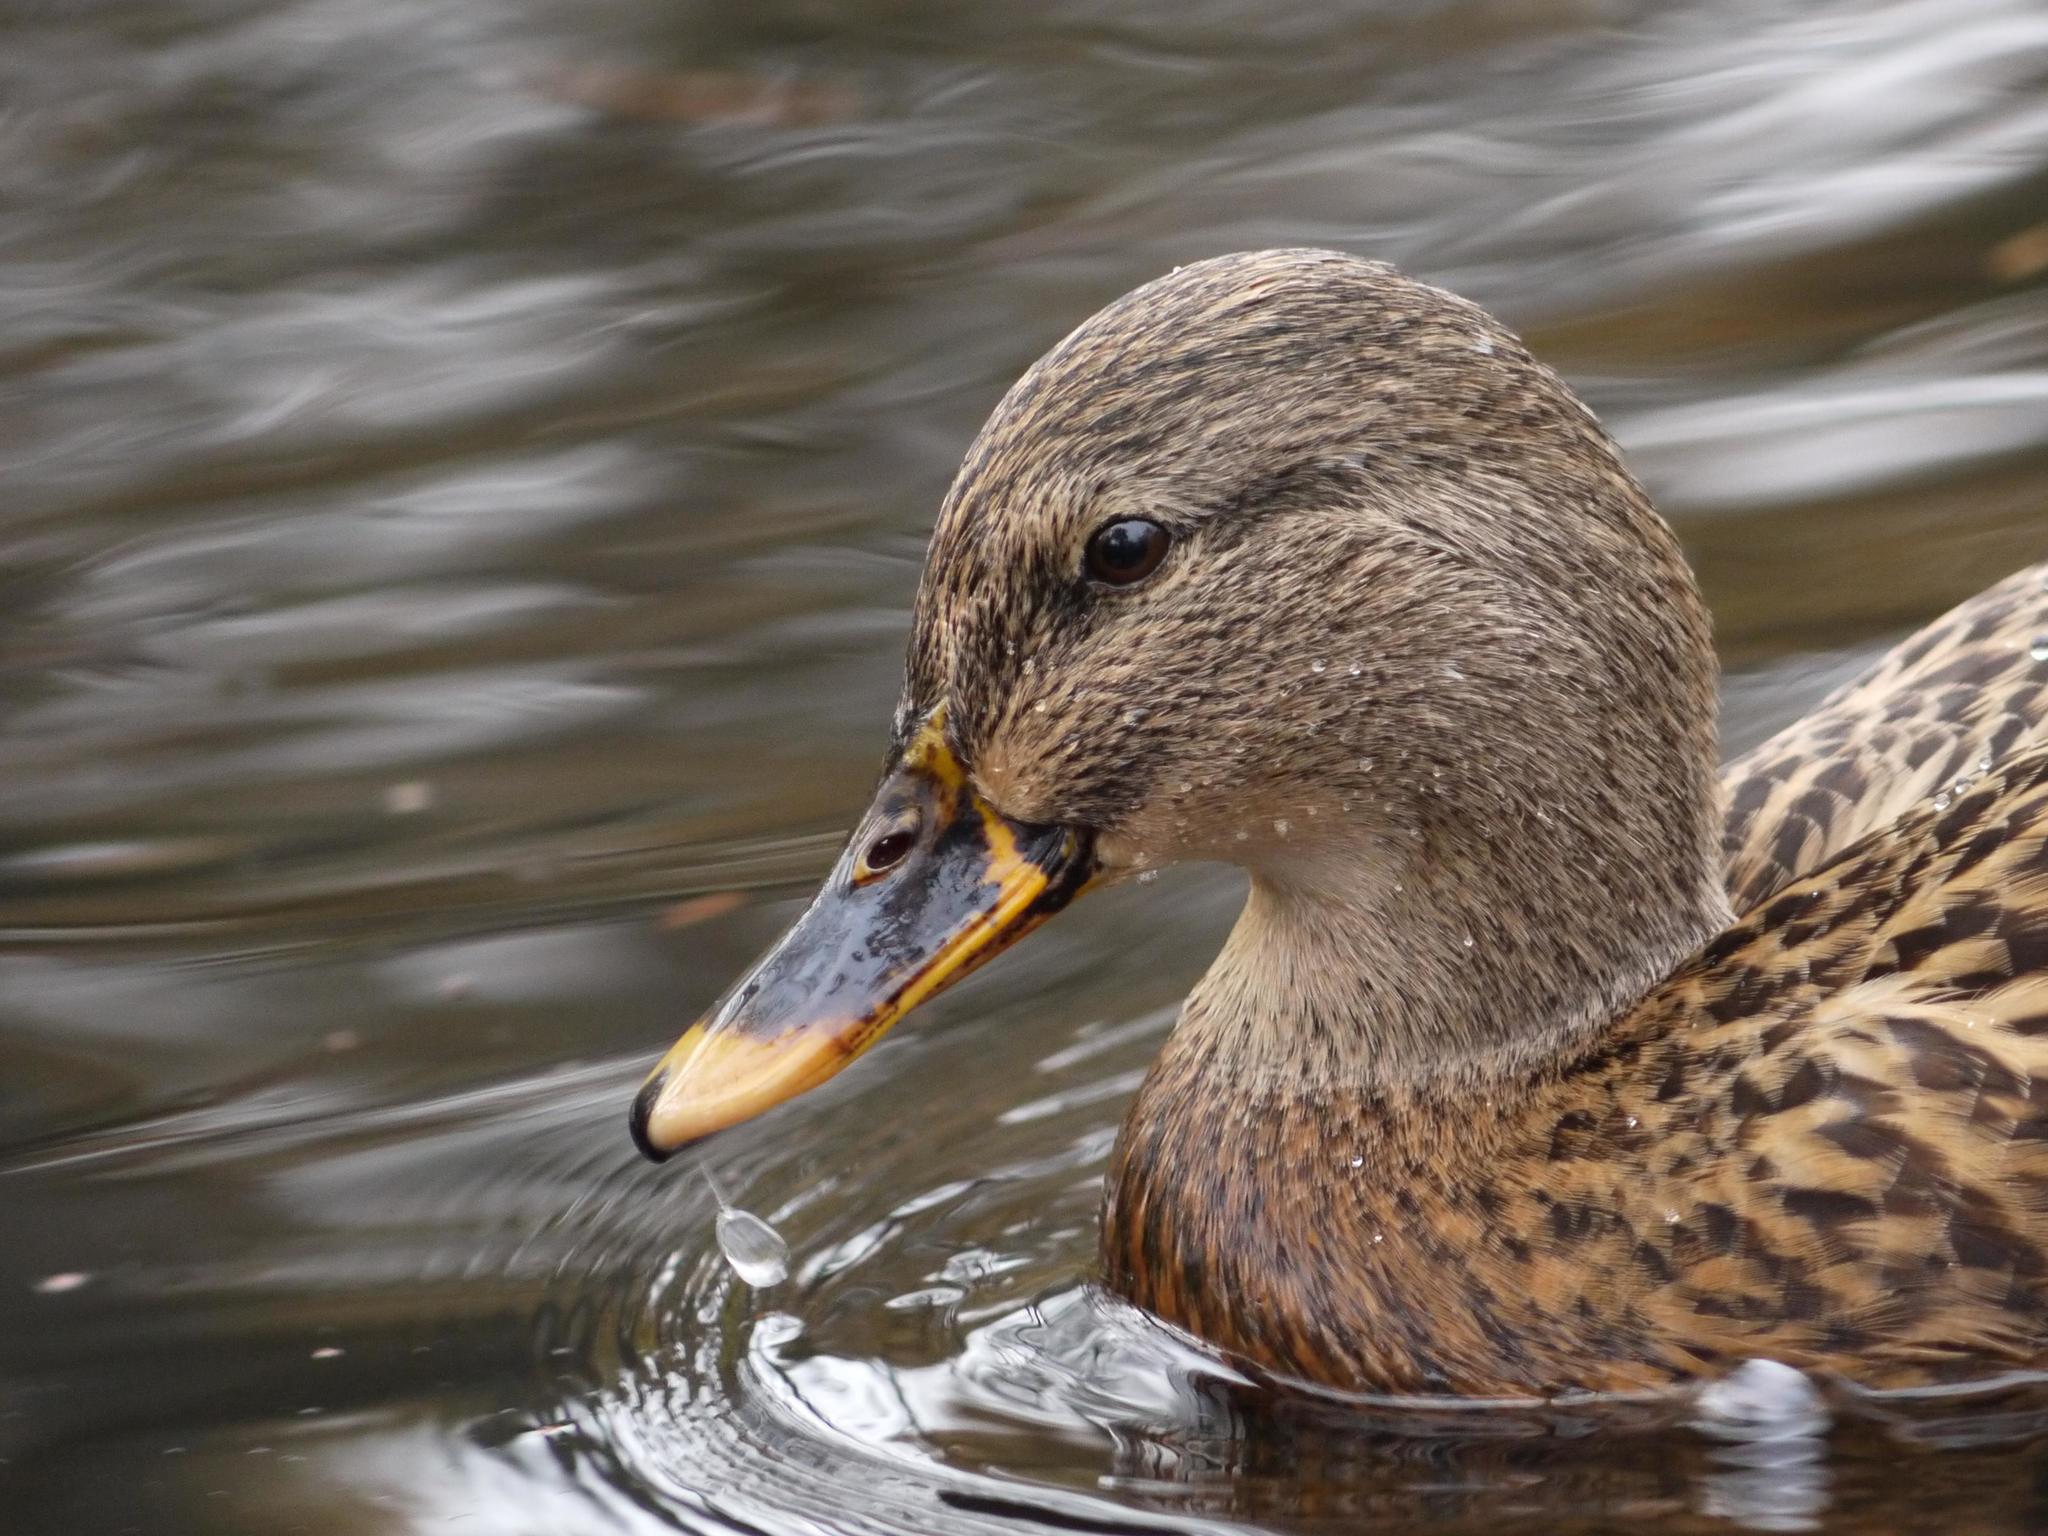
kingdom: Animalia
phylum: Chordata
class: Aves
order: Anseriformes
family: Anatidae
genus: Anas
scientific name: Anas platyrhynchos
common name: Mallard
